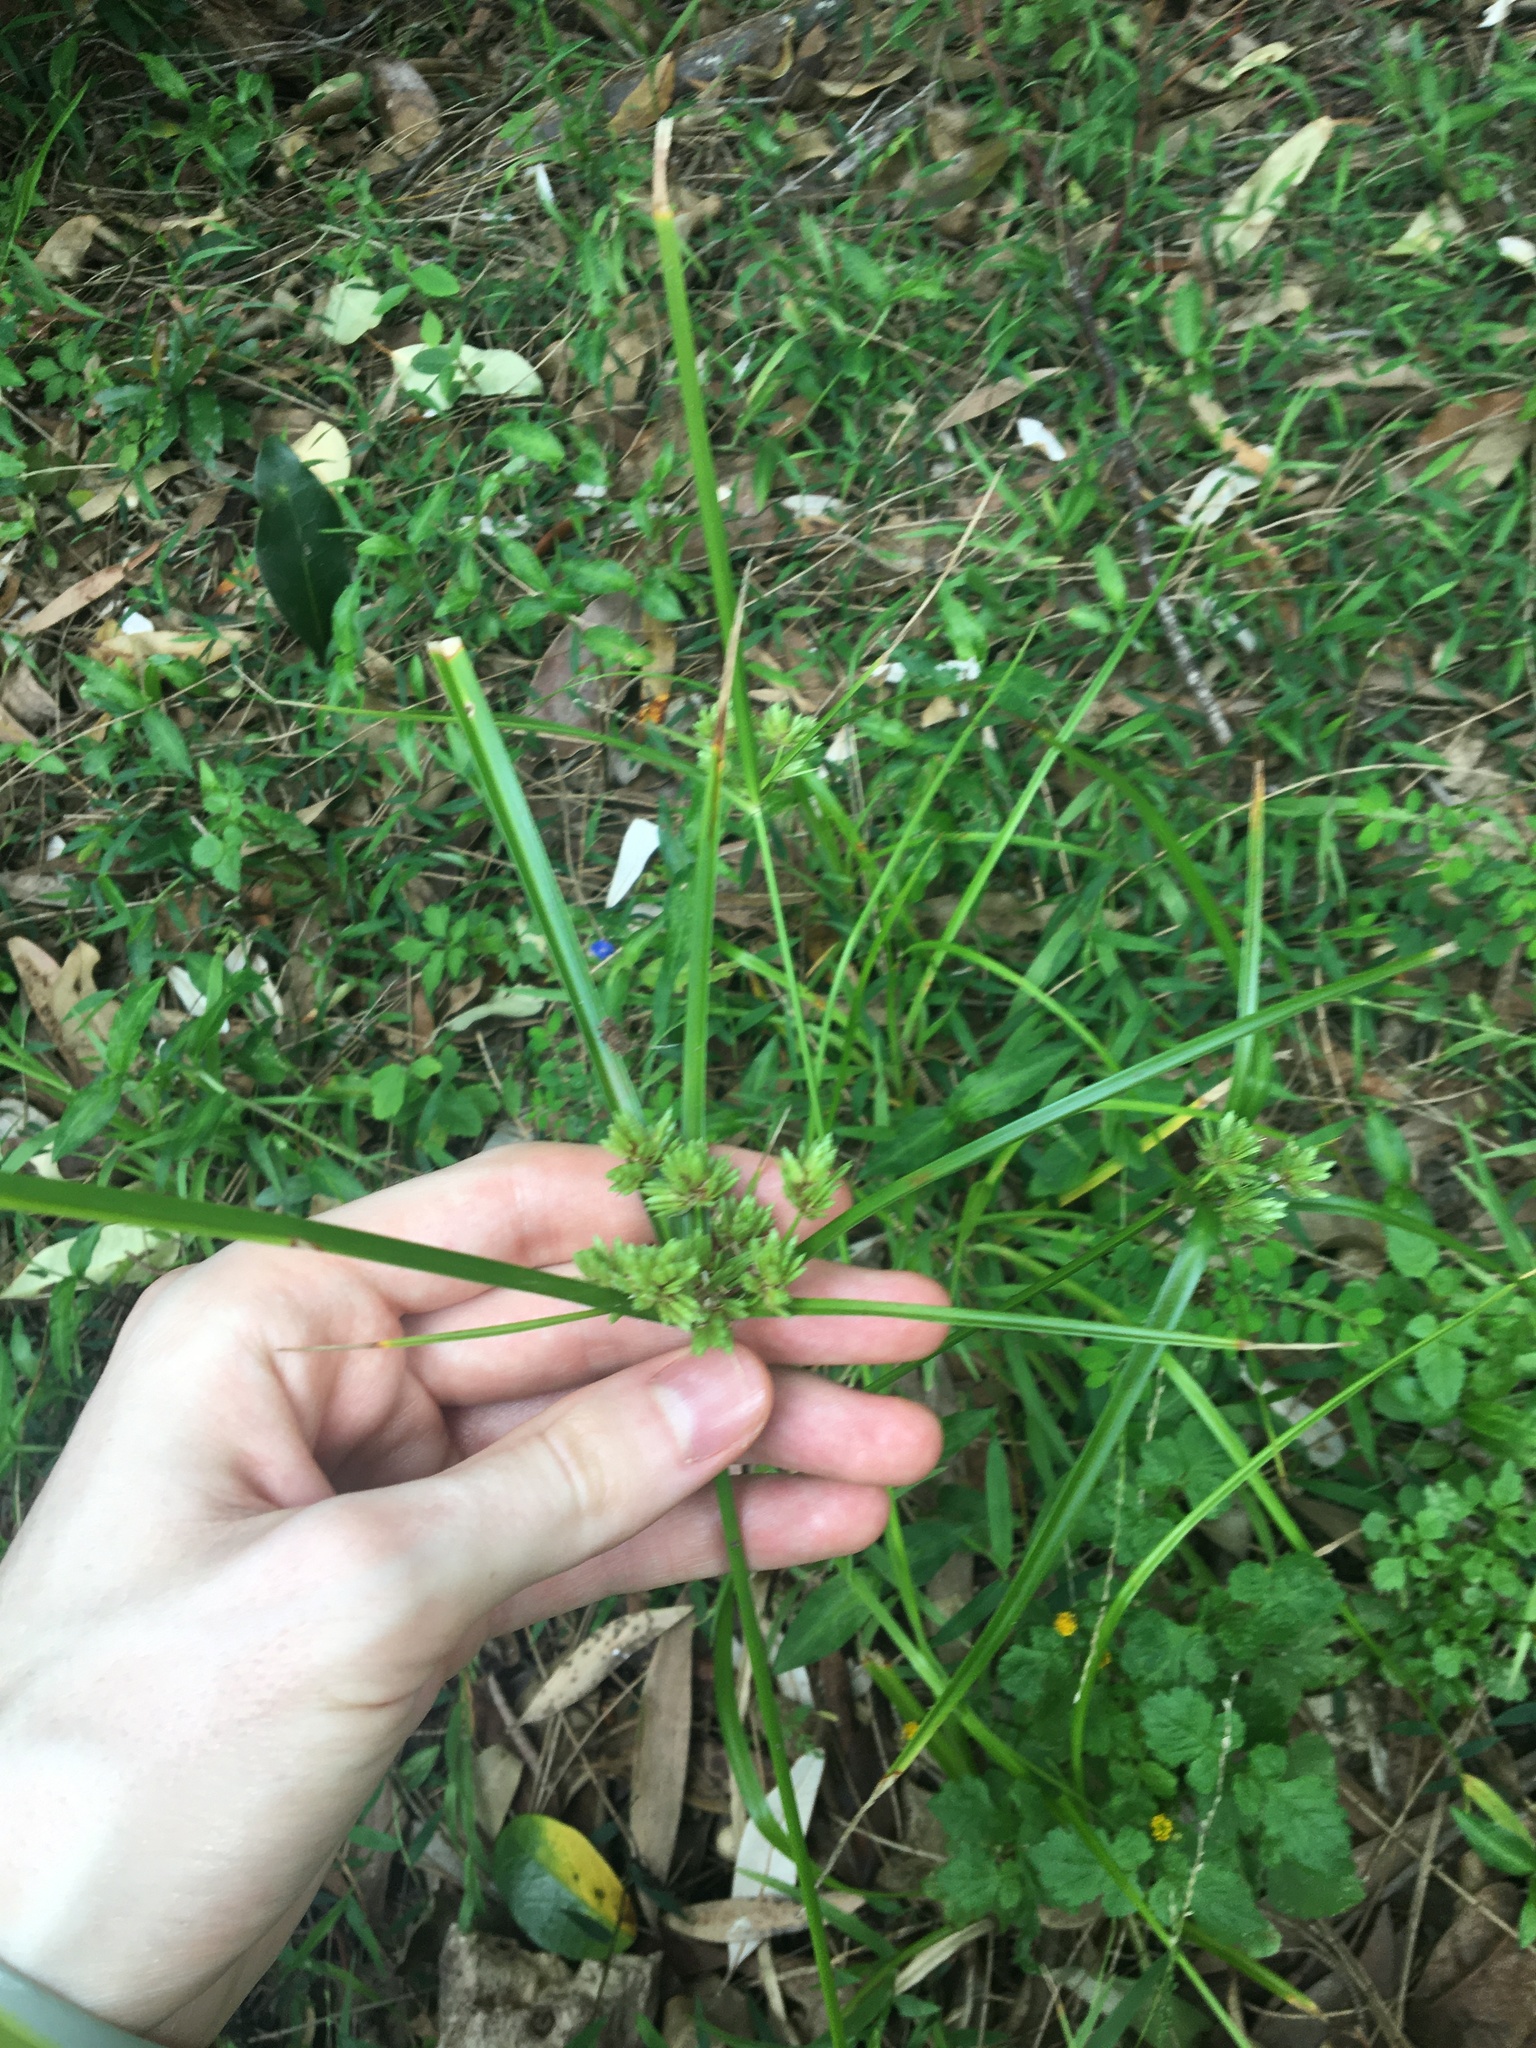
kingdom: Plantae
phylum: Tracheophyta
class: Liliopsida
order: Poales
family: Cyperaceae
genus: Cyperus
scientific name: Cyperus eragrostis
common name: Tall flatsedge
